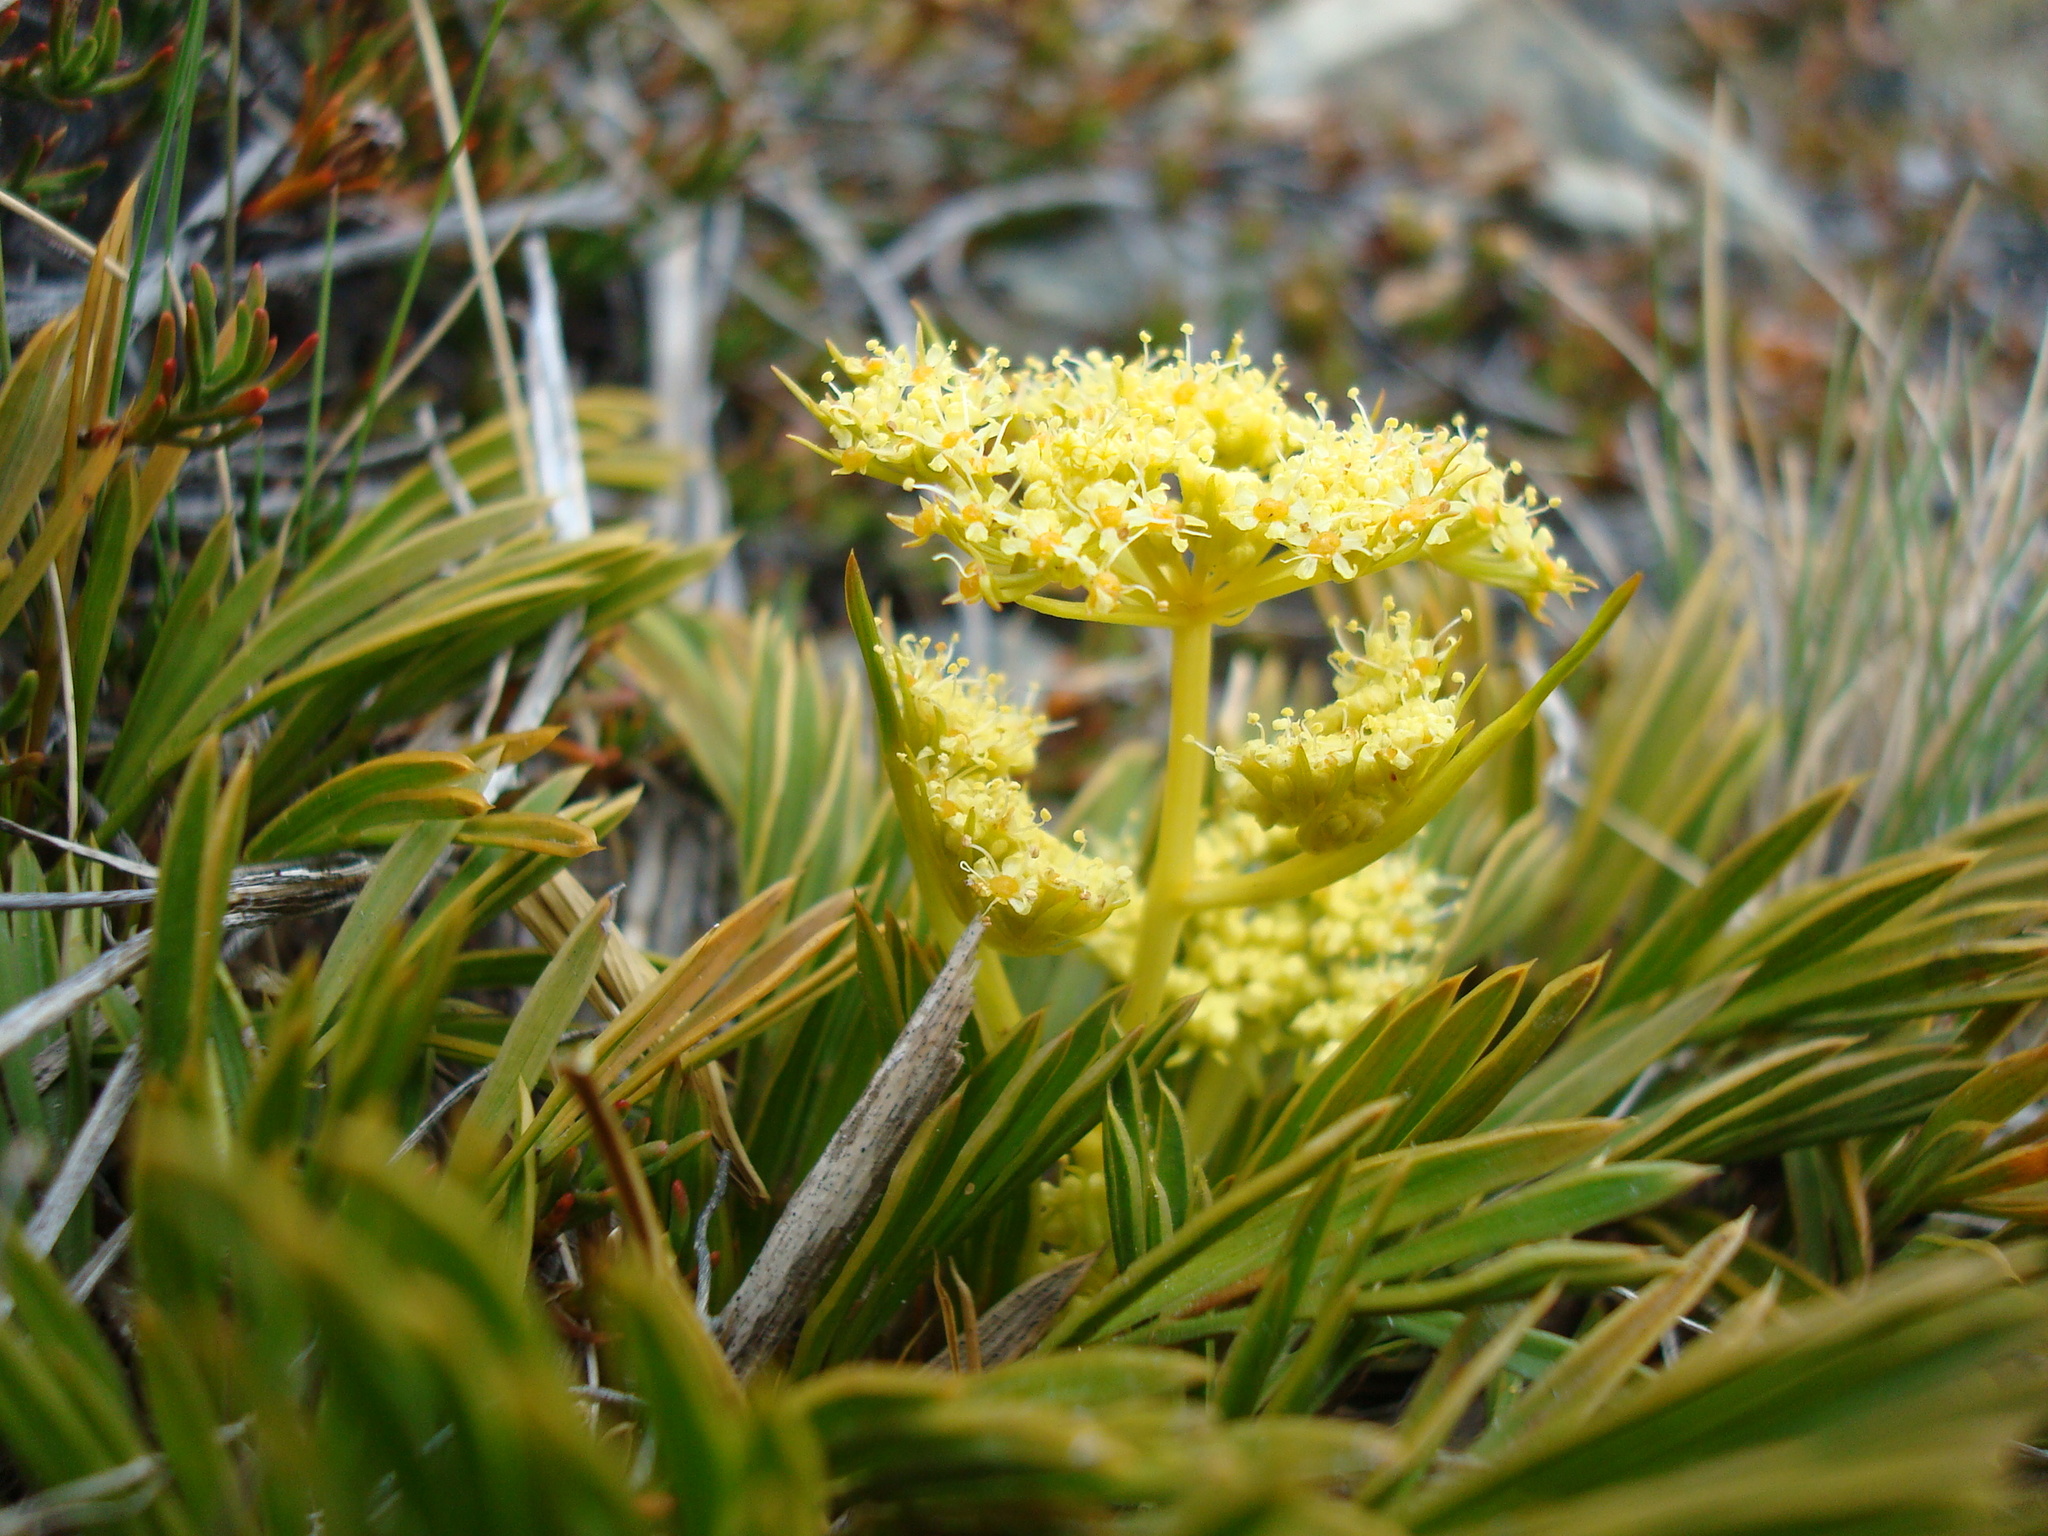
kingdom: Plantae
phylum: Tracheophyta
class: Magnoliopsida
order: Apiales
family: Apiaceae
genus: Aciphylla
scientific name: Aciphylla monroi
